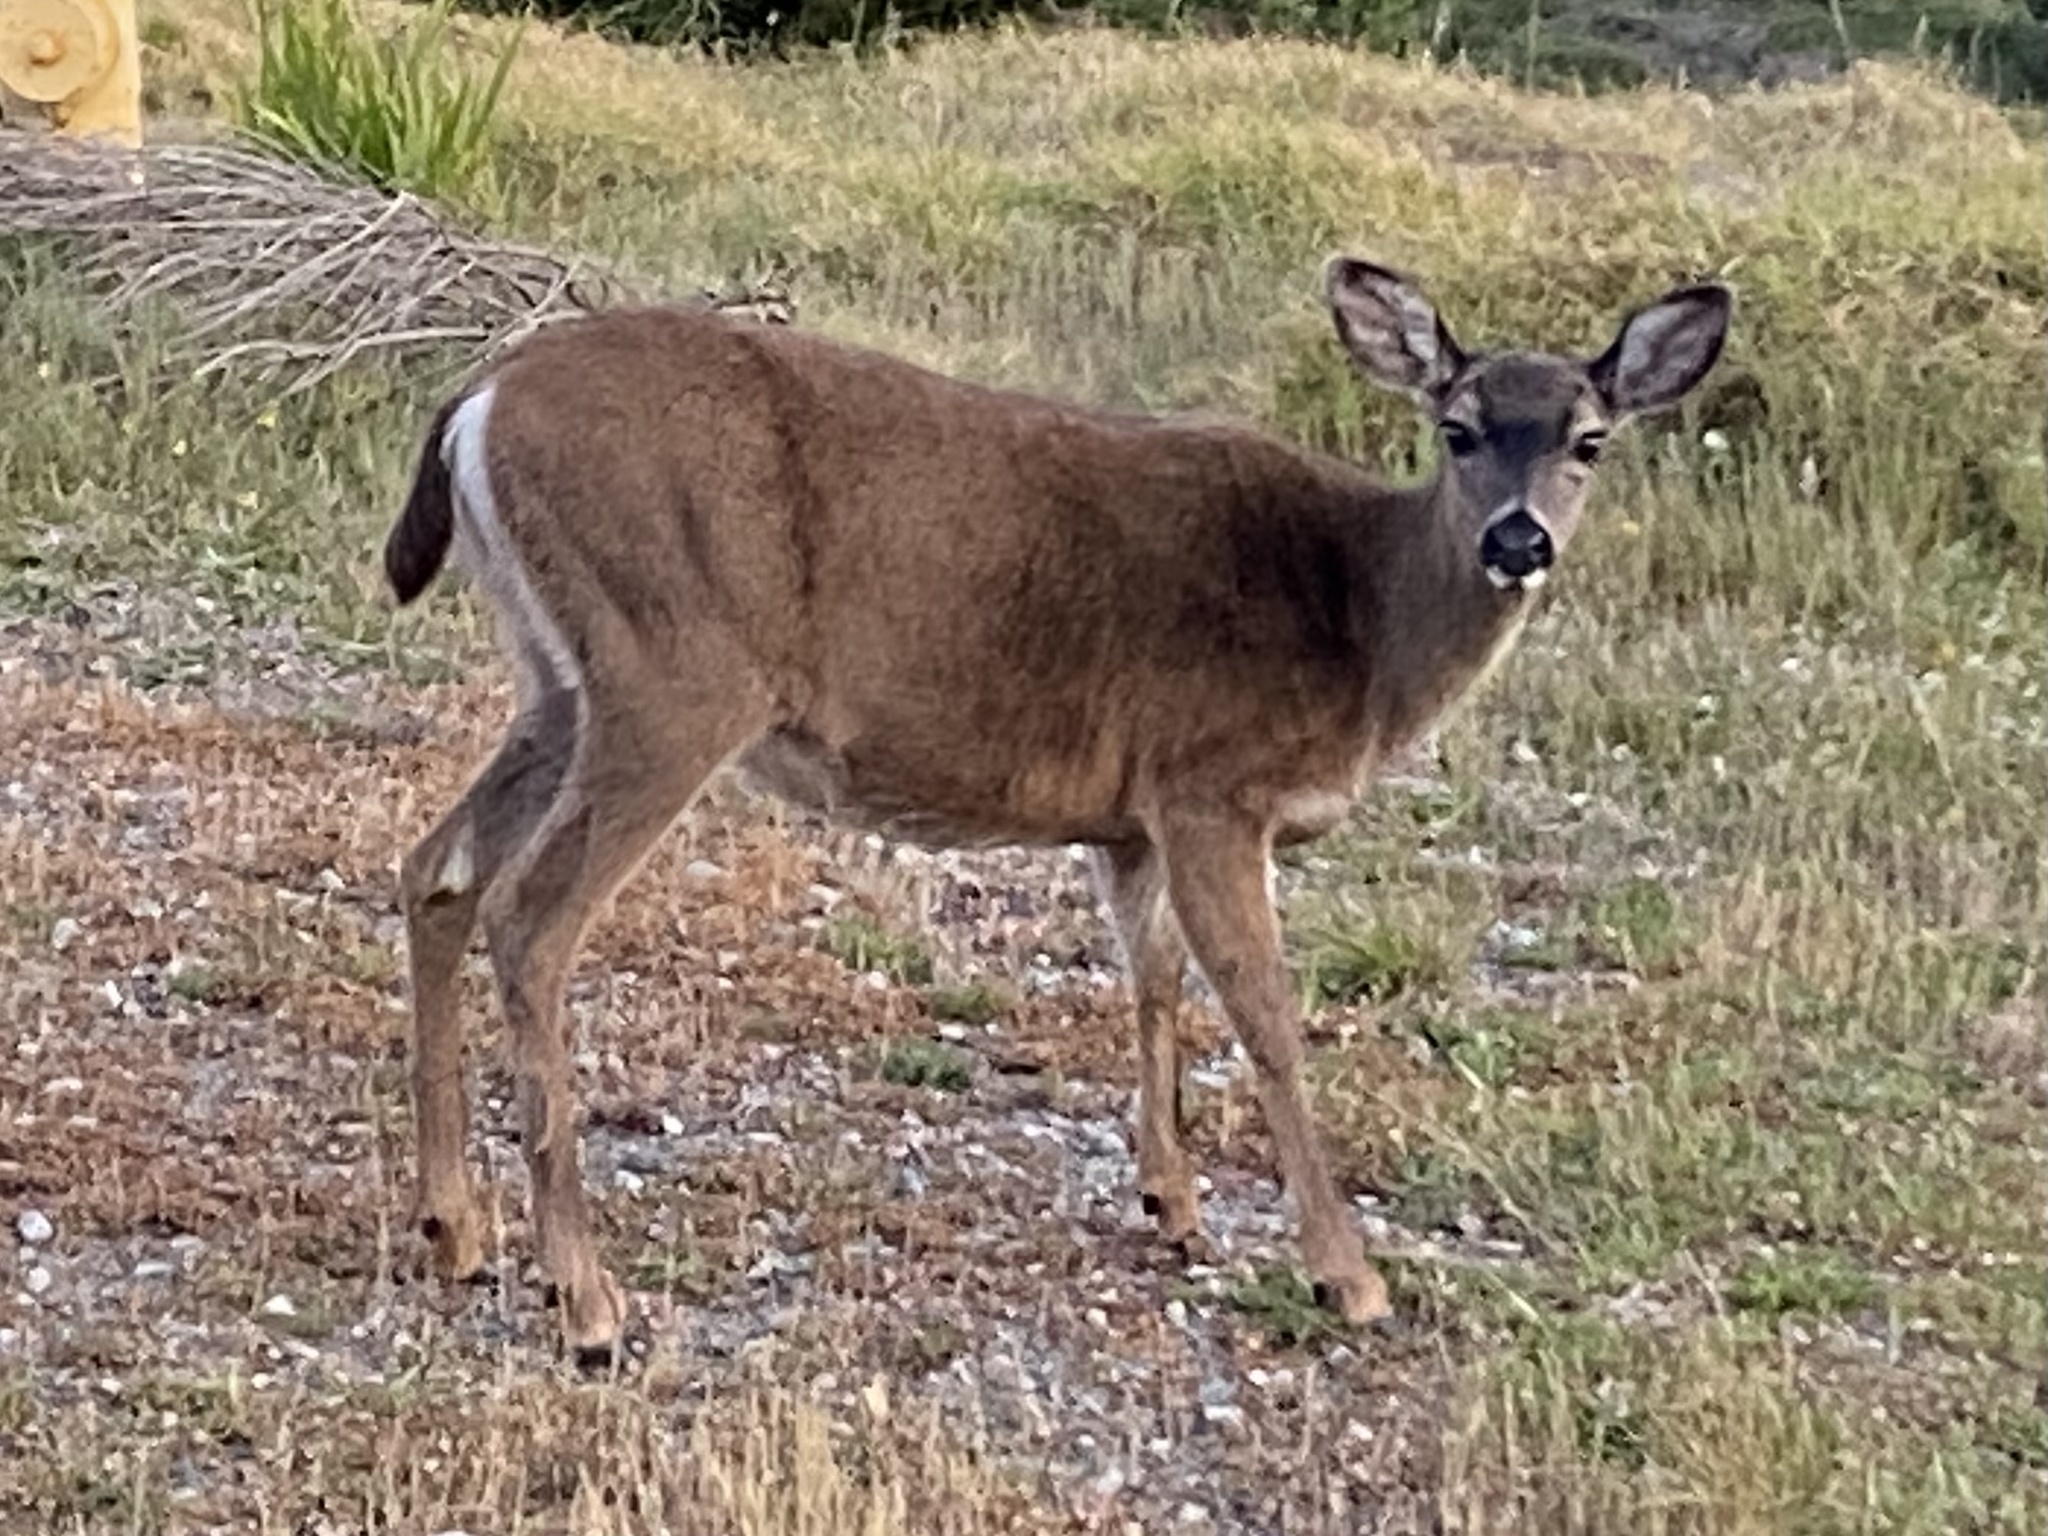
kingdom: Animalia
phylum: Chordata
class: Mammalia
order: Artiodactyla
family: Cervidae
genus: Odocoileus
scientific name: Odocoileus hemionus
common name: Mule deer
